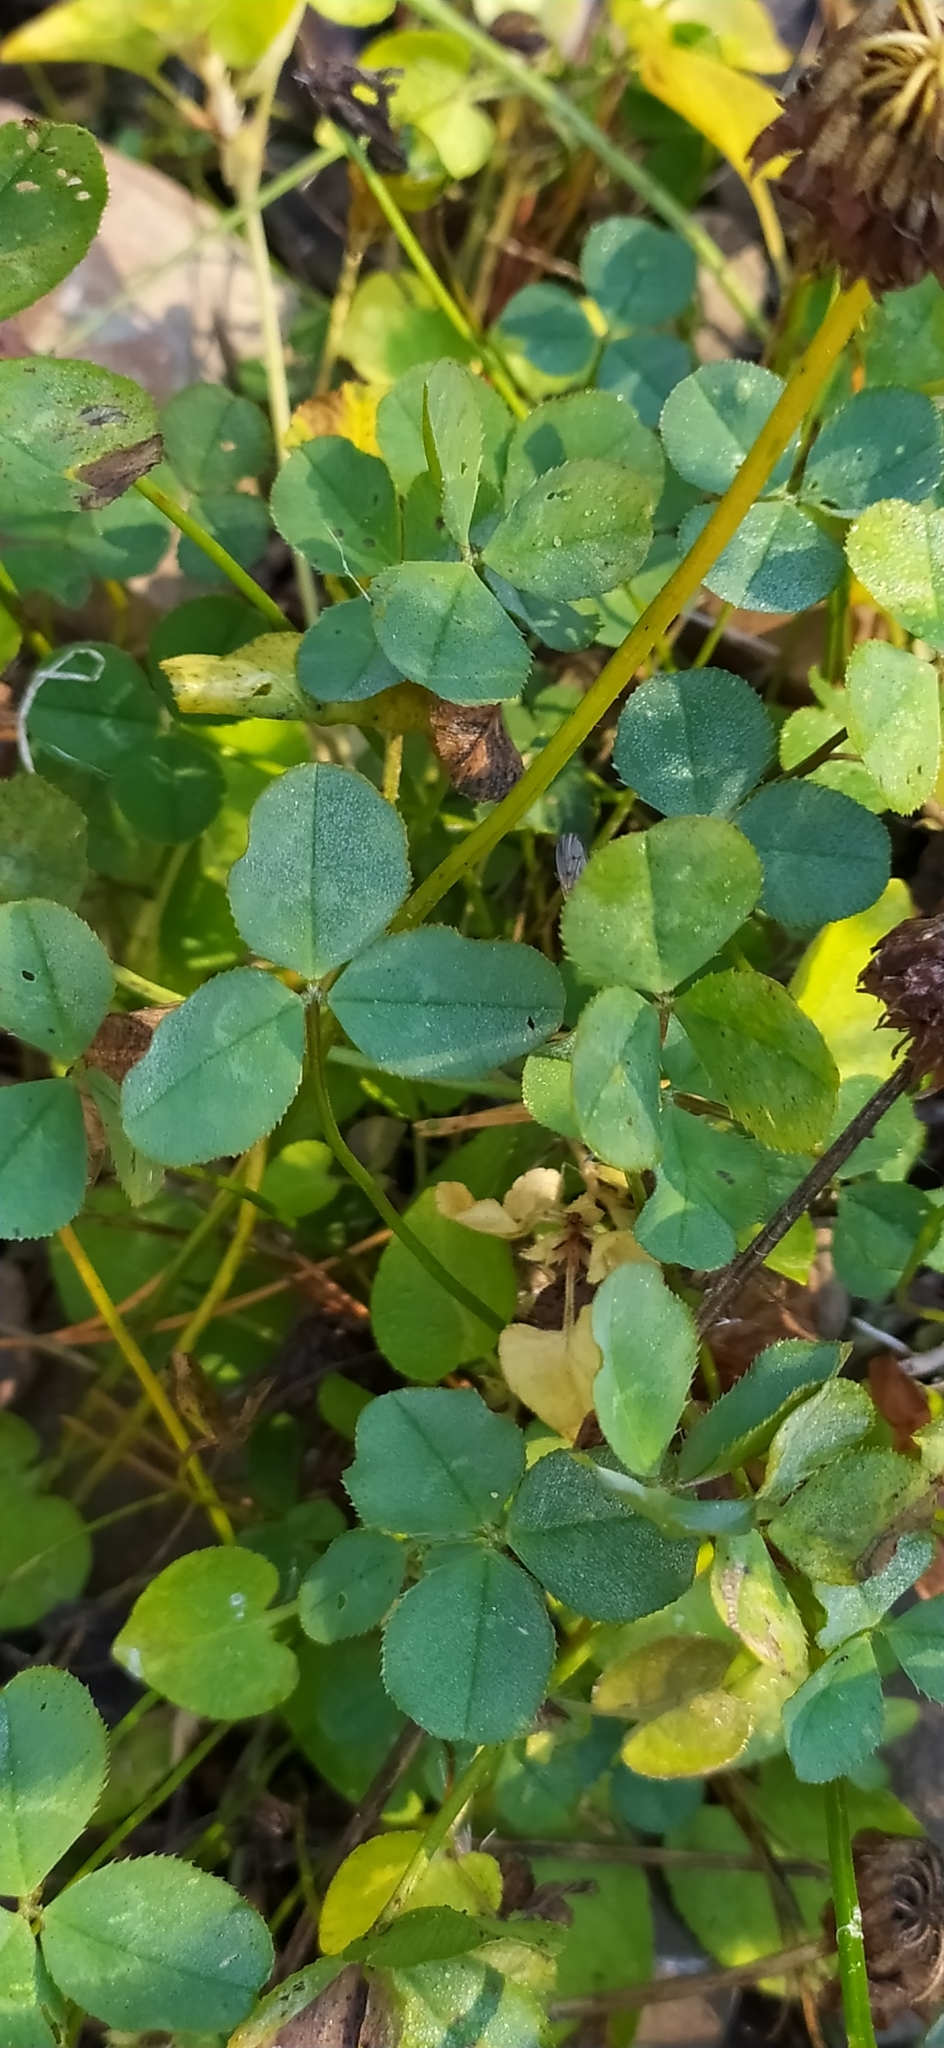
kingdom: Plantae
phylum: Tracheophyta
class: Magnoliopsida
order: Fabales
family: Fabaceae
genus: Trifolium
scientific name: Trifolium repens
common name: White clover
